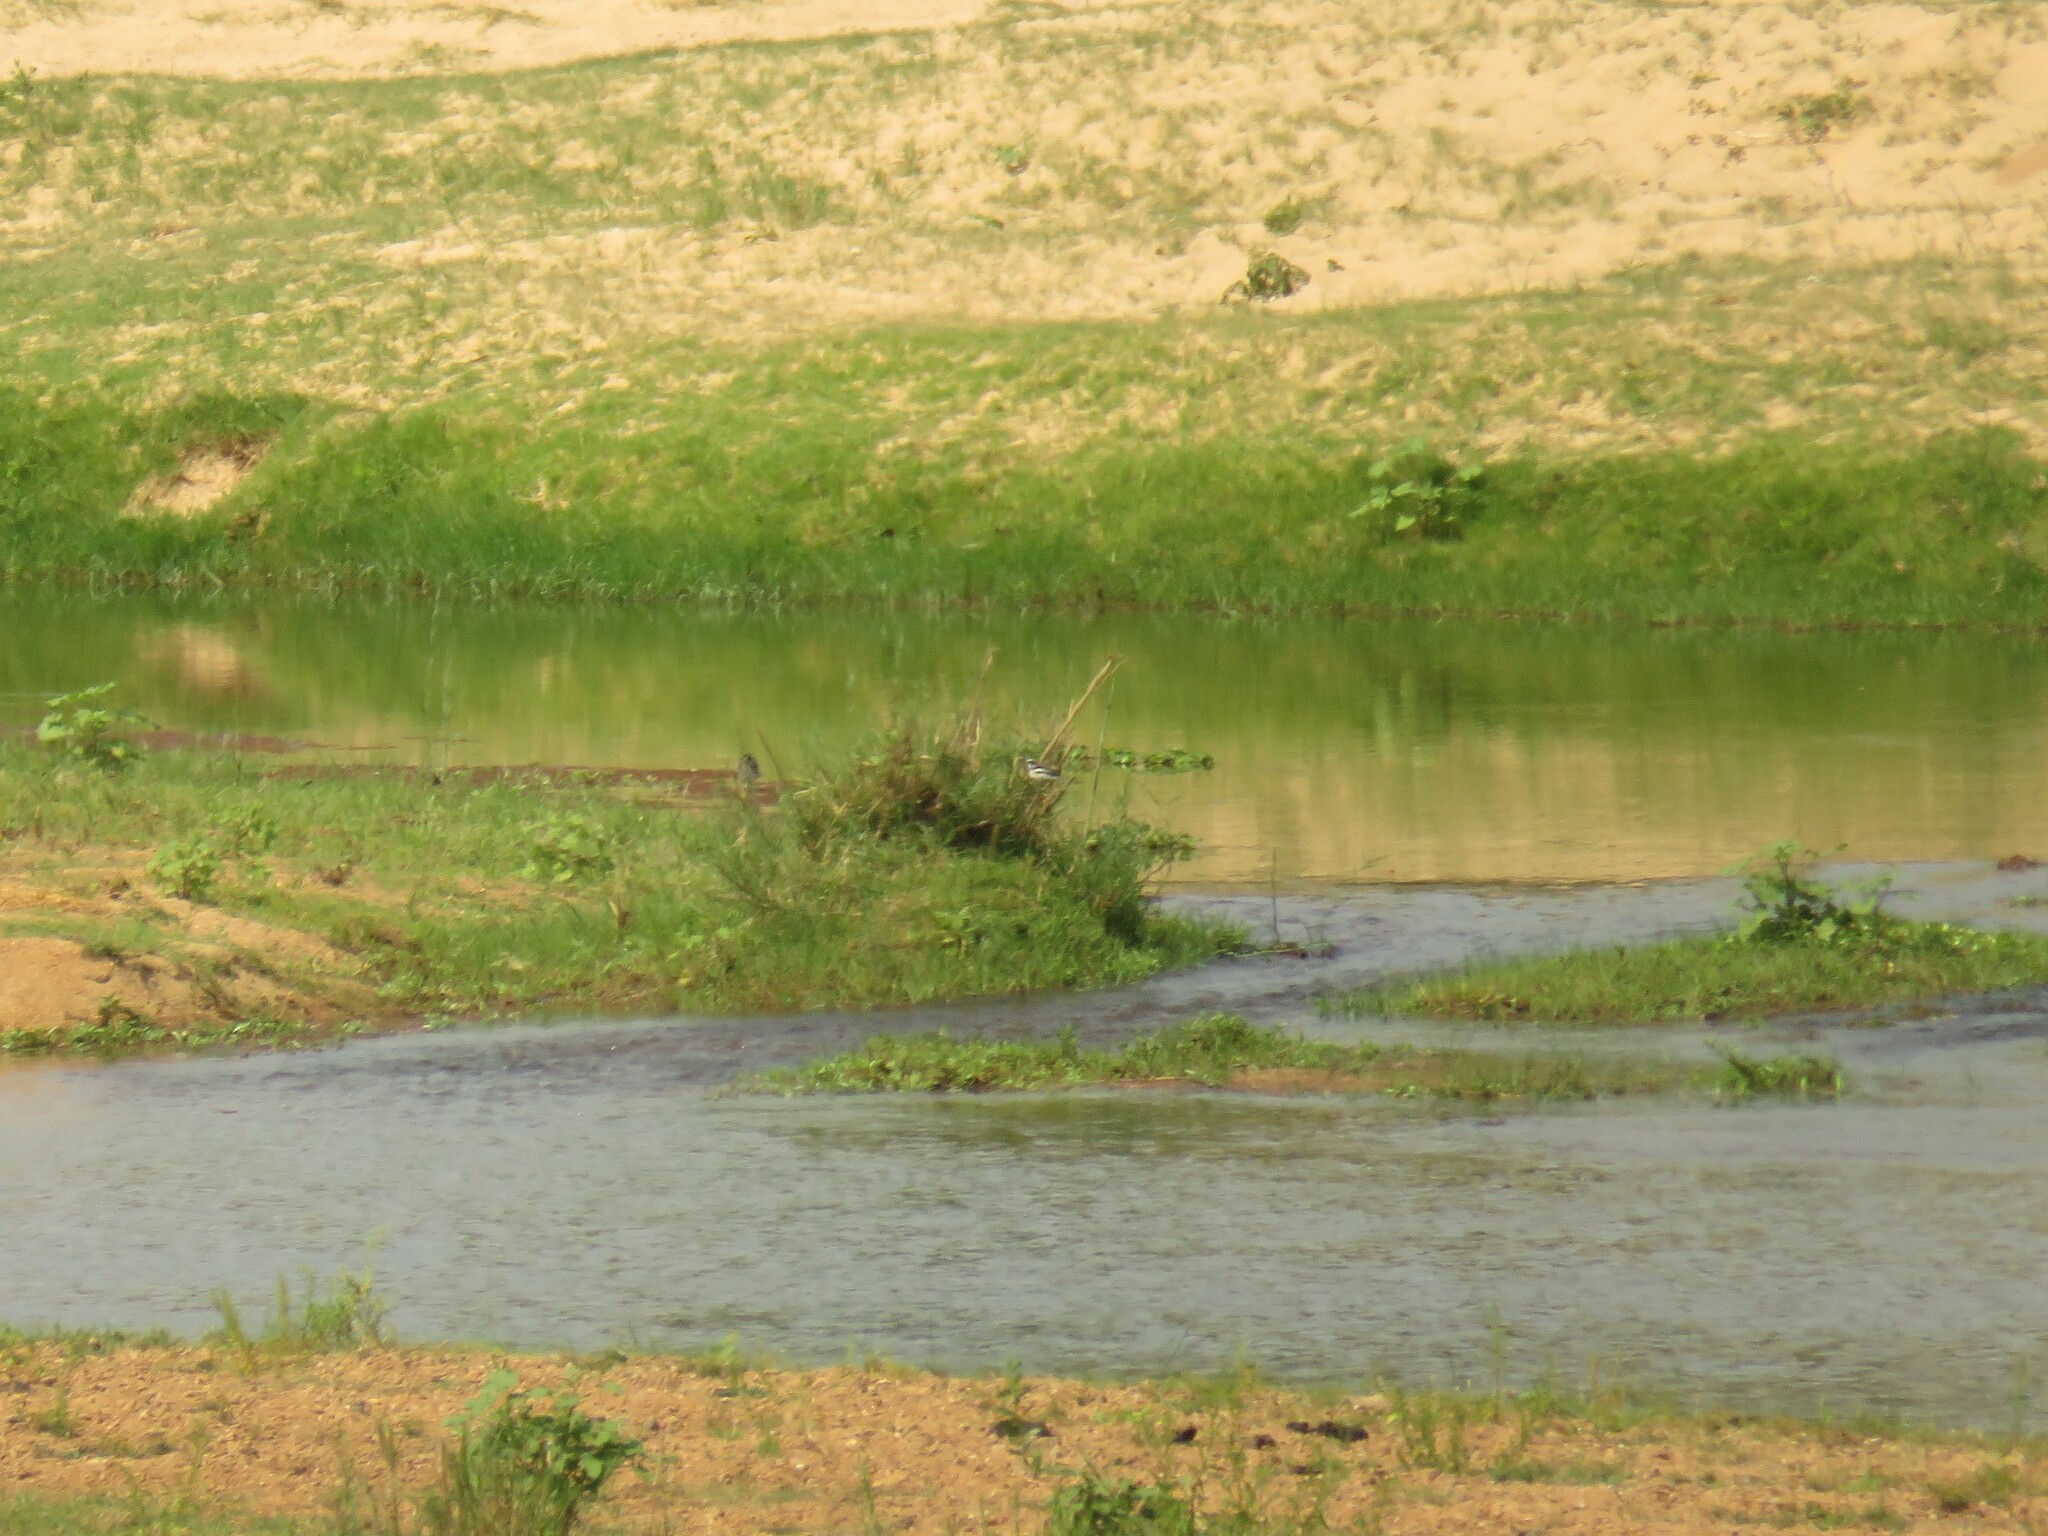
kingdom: Animalia
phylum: Chordata
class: Aves
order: Passeriformes
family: Motacillidae
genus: Motacilla
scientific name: Motacilla aguimp
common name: African pied wagtail
